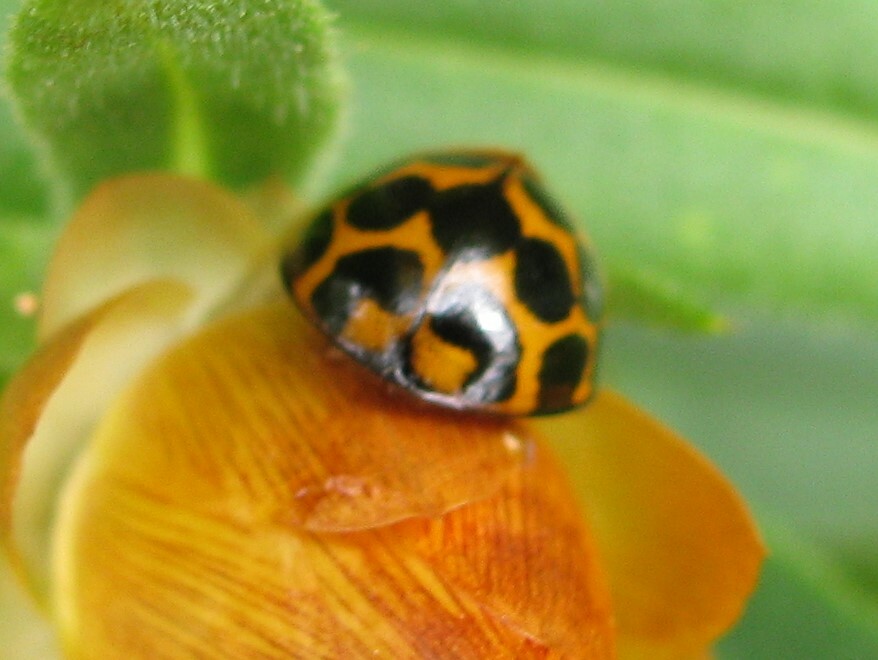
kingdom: Animalia
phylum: Arthropoda
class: Insecta
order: Coleoptera
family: Coccinellidae
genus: Harmonia
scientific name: Harmonia conformis
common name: Common spotted ladybird beetle
